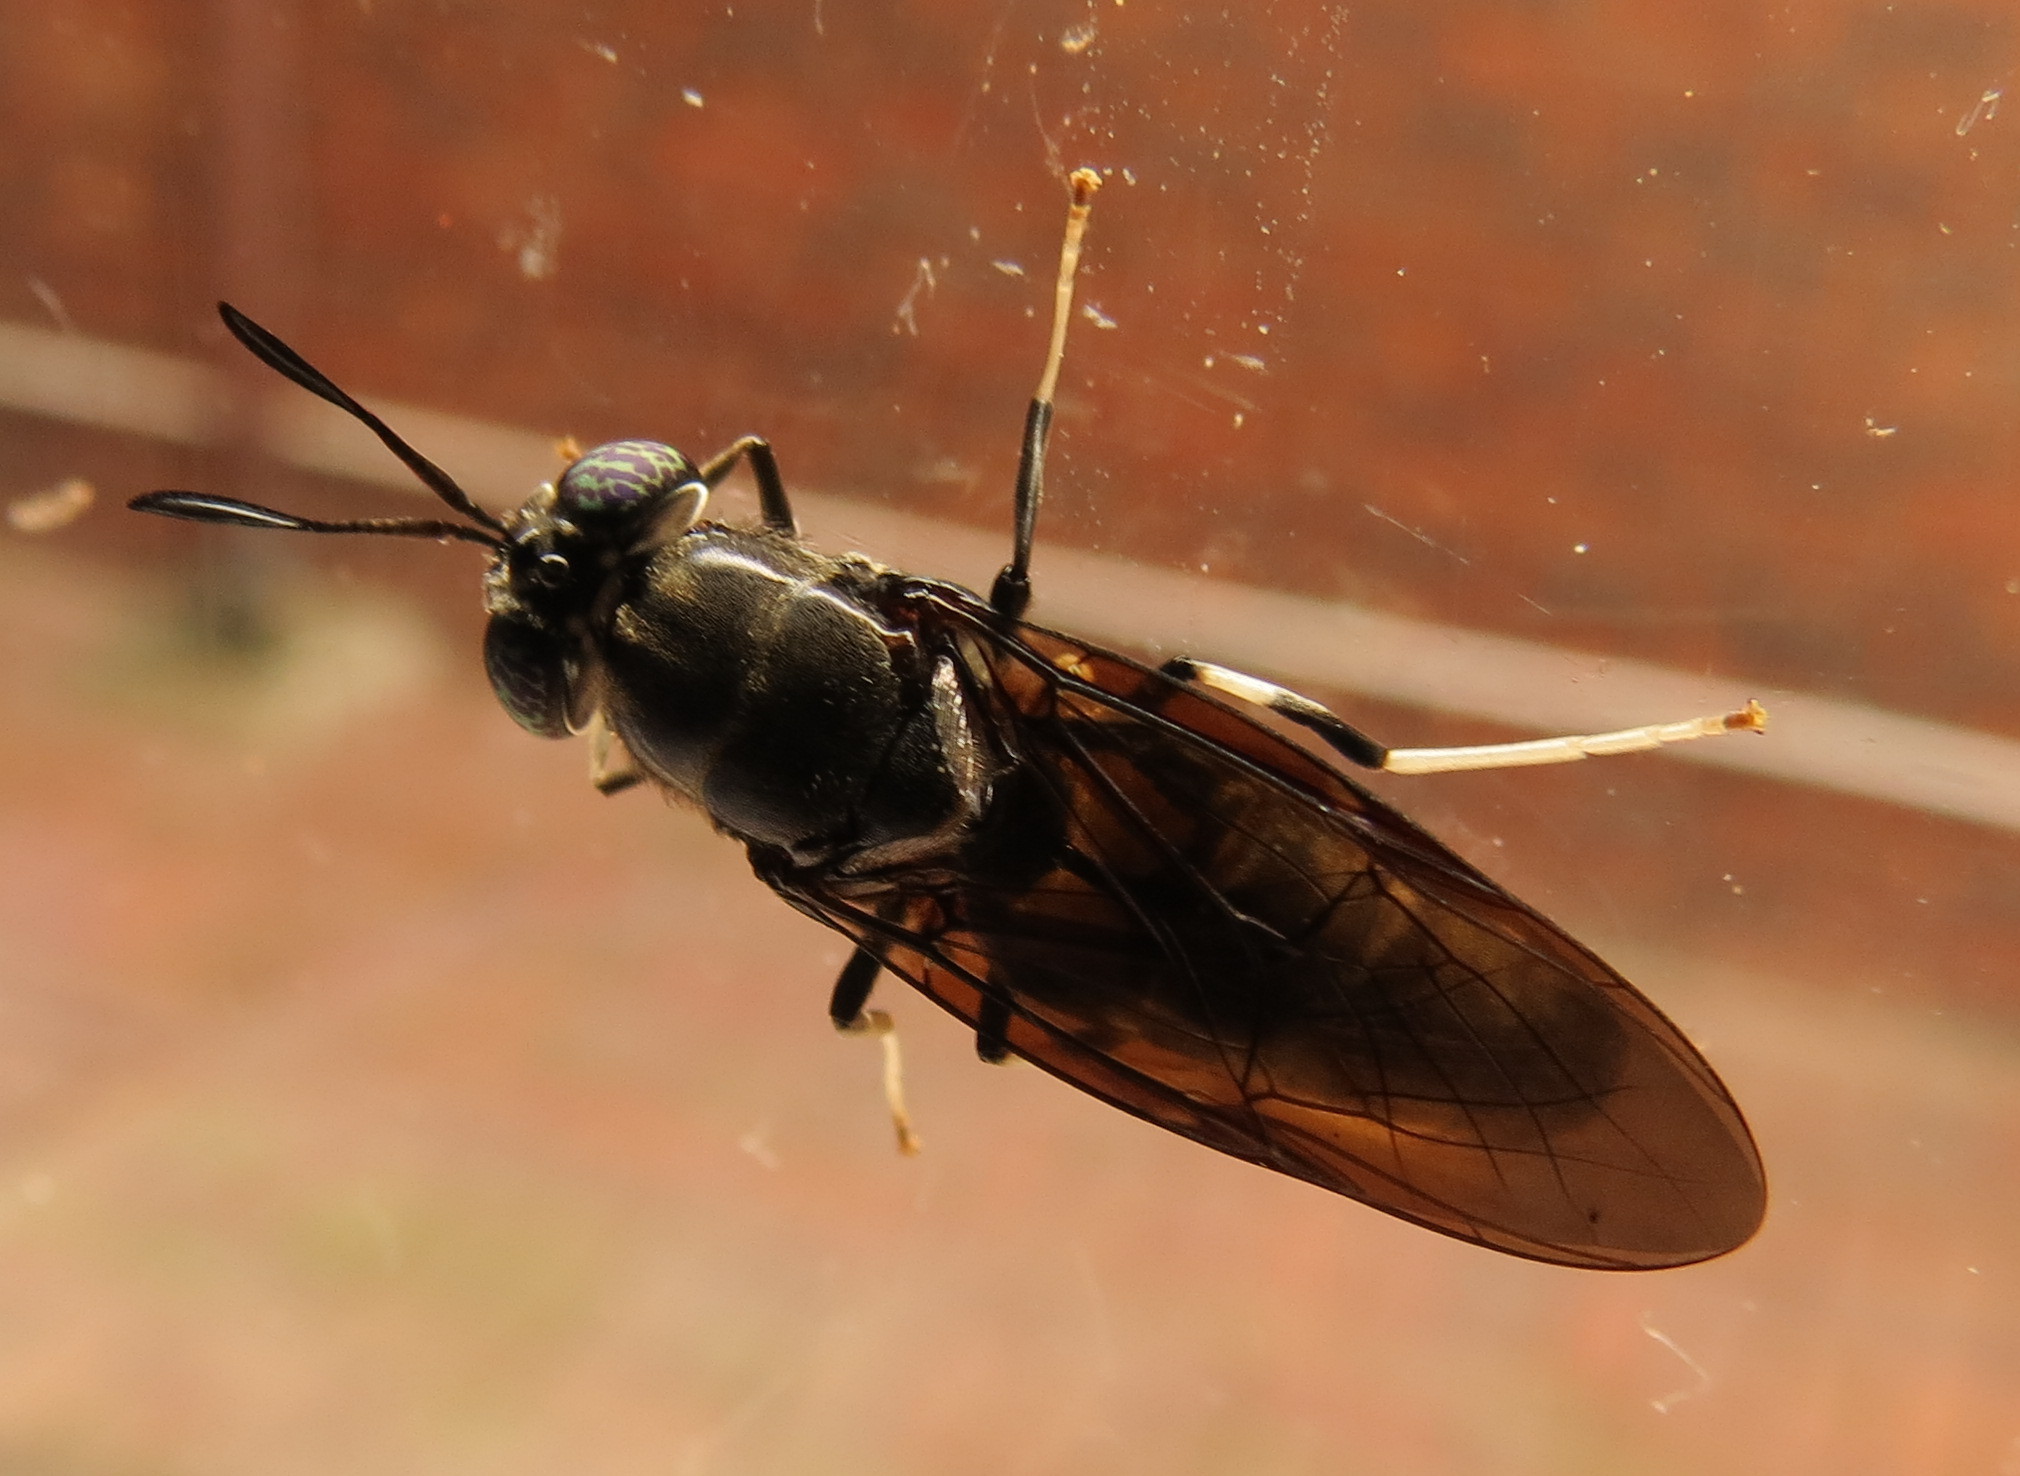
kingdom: Animalia
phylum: Arthropoda
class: Insecta
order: Diptera
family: Stratiomyidae
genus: Hermetia
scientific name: Hermetia illucens
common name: Black soldier fly
